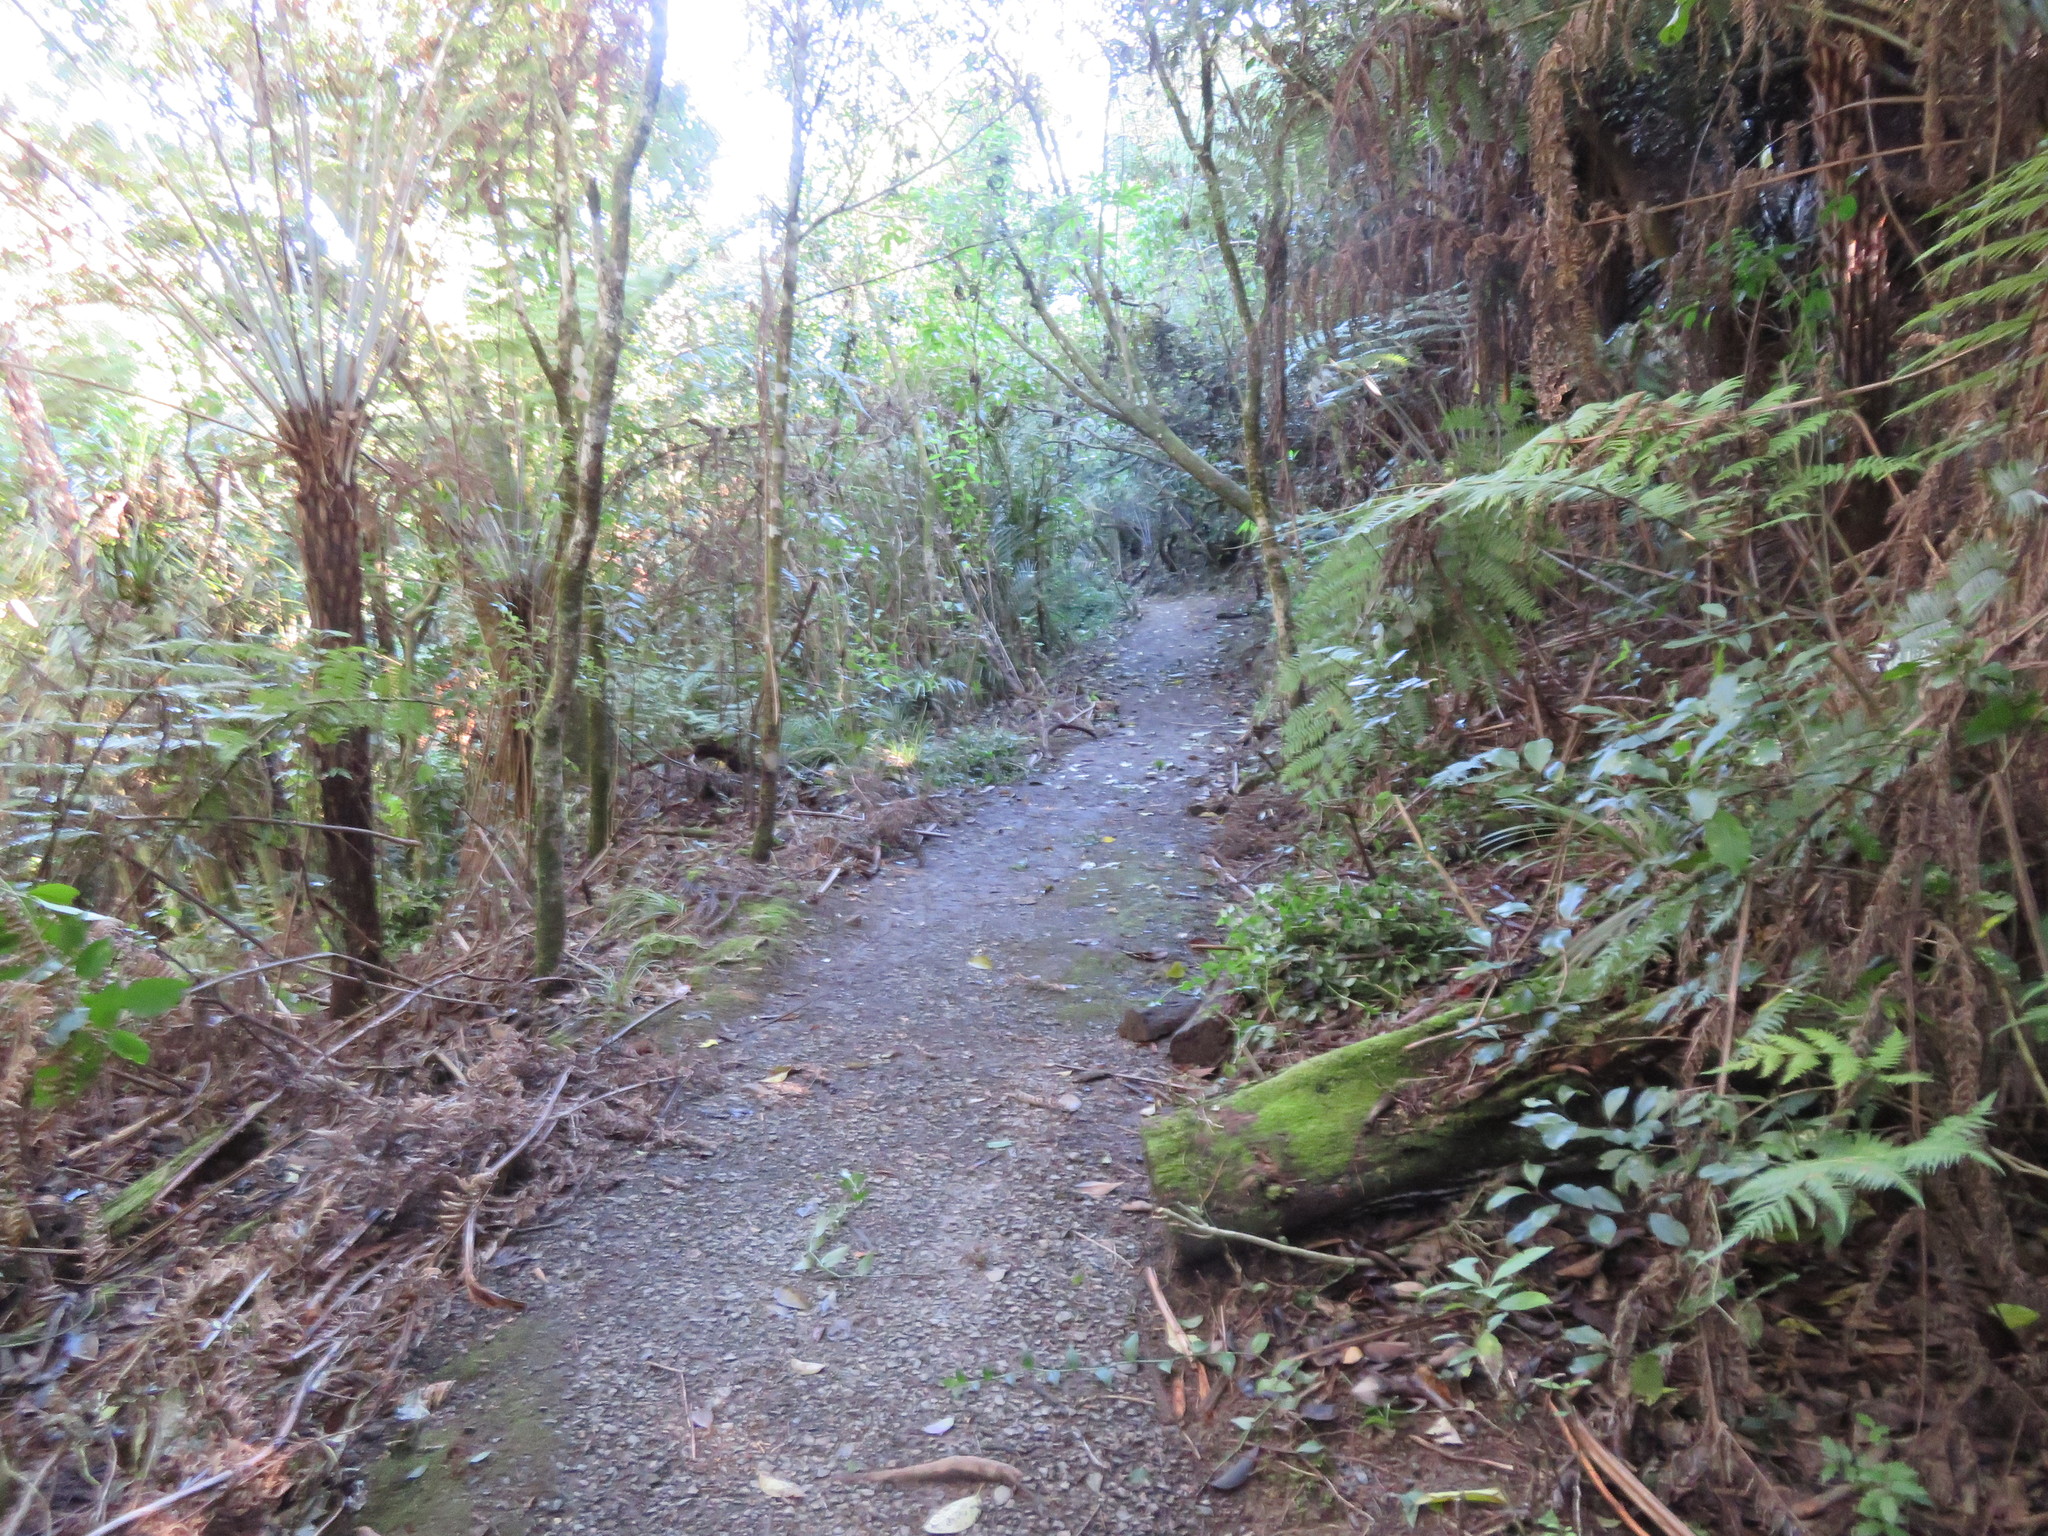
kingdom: Plantae
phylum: Tracheophyta
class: Liliopsida
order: Commelinales
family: Commelinaceae
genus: Tradescantia
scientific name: Tradescantia fluminensis
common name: Wandering-jew
